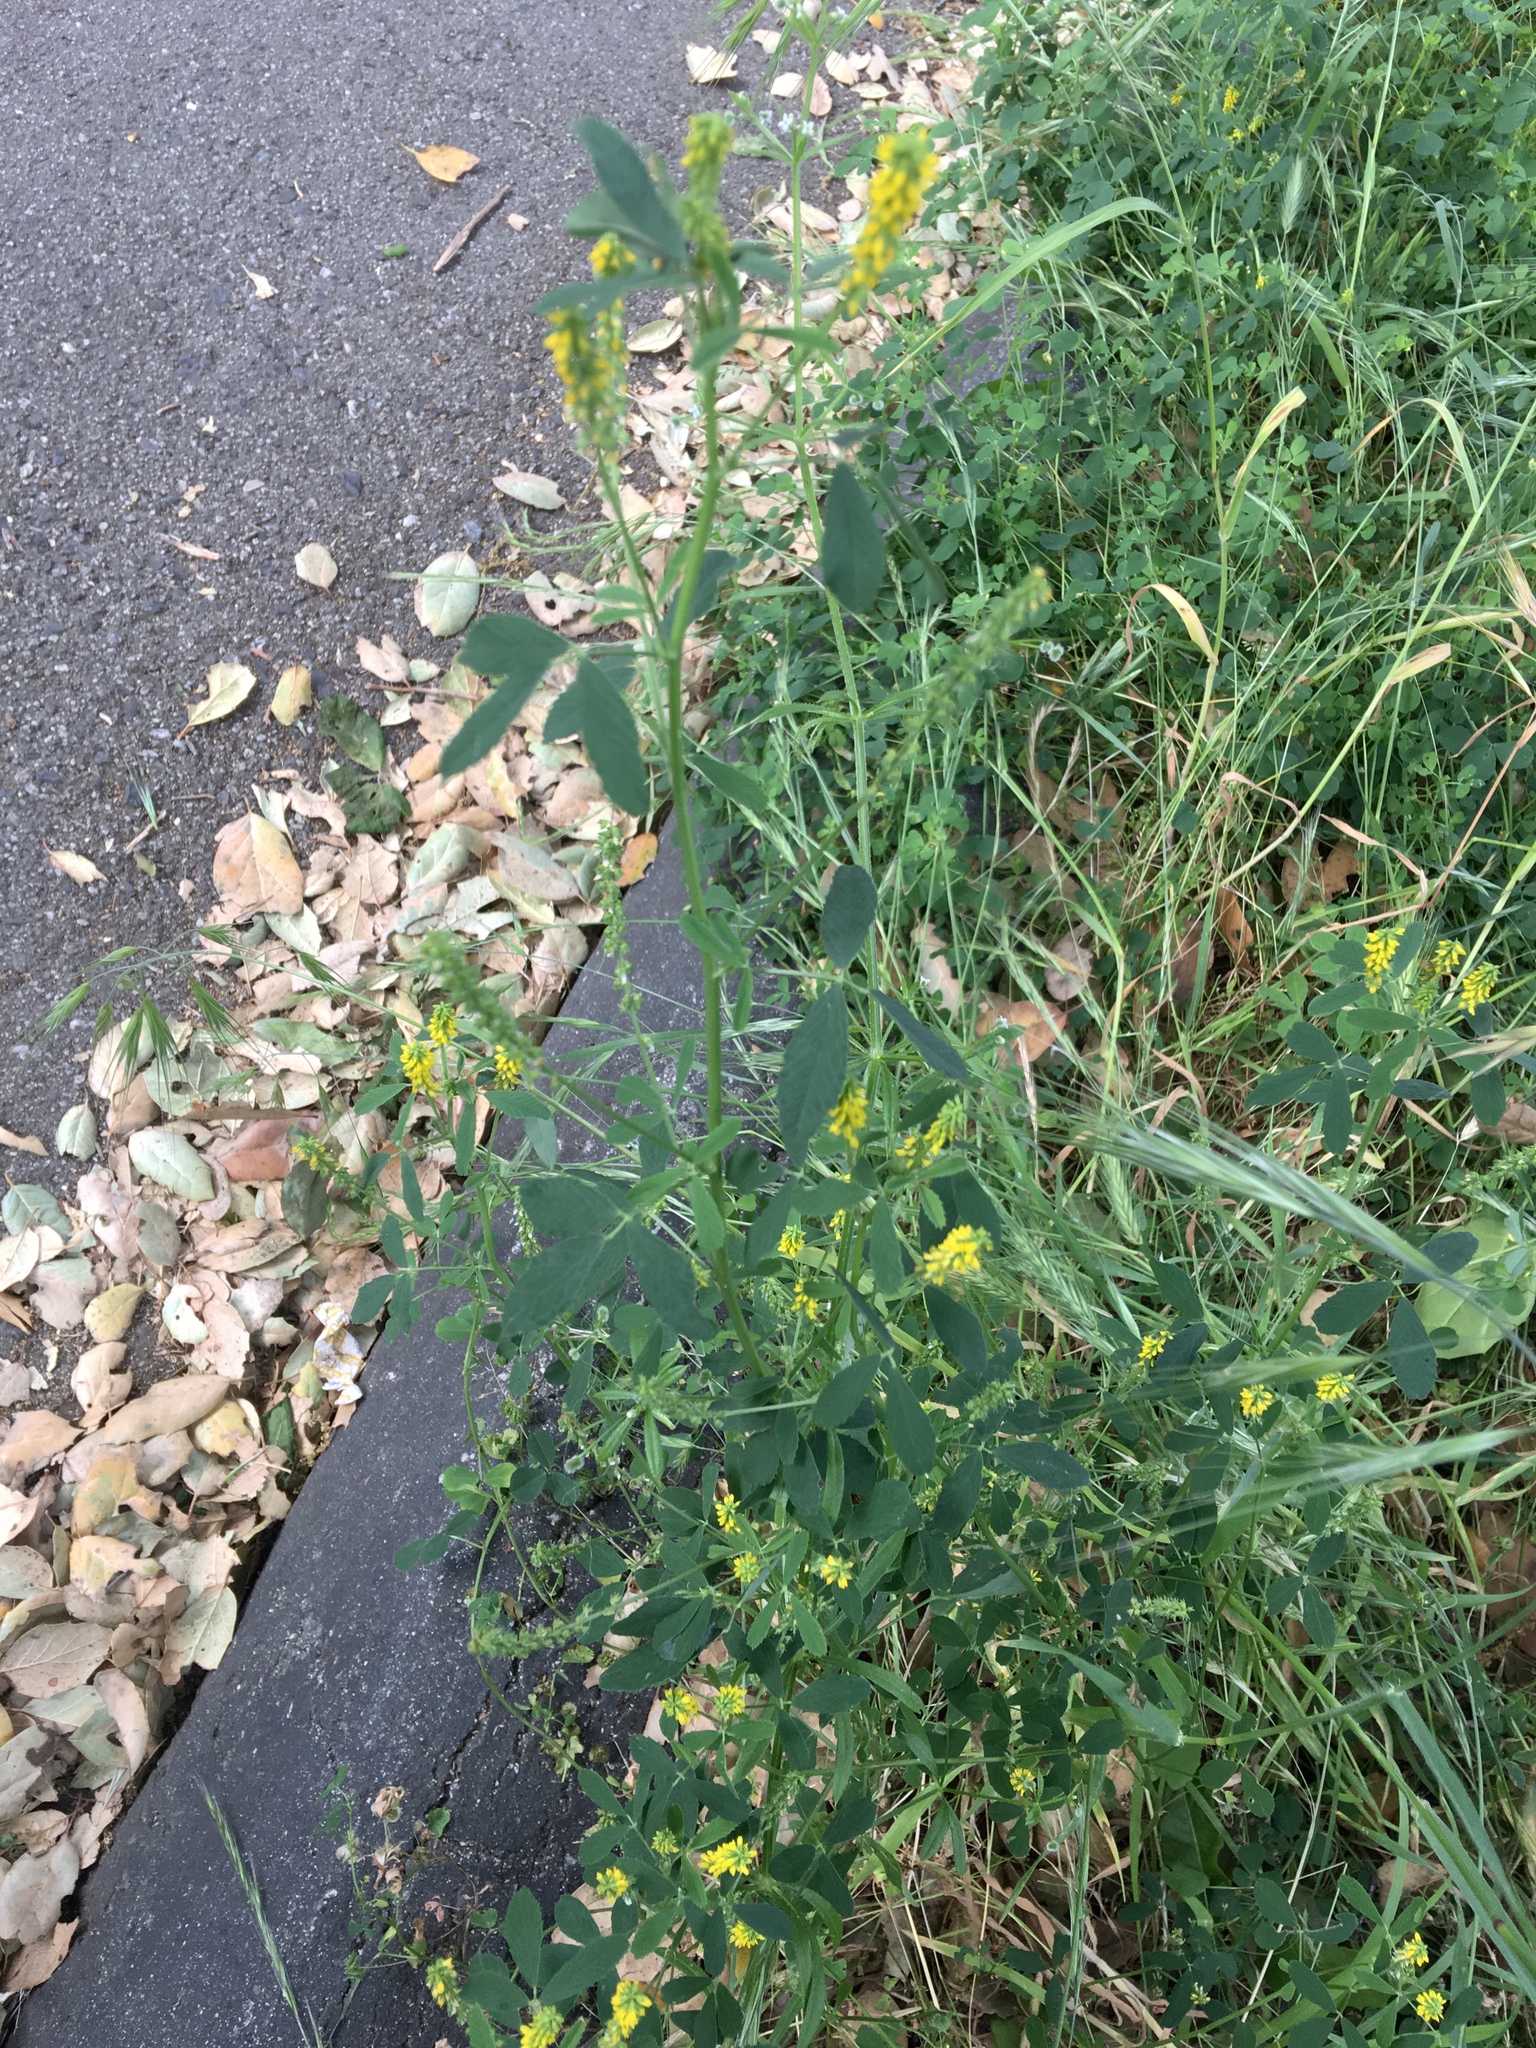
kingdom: Plantae
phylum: Tracheophyta
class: Magnoliopsida
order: Fabales
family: Fabaceae
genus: Melilotus
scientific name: Melilotus indicus
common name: Small melilot
